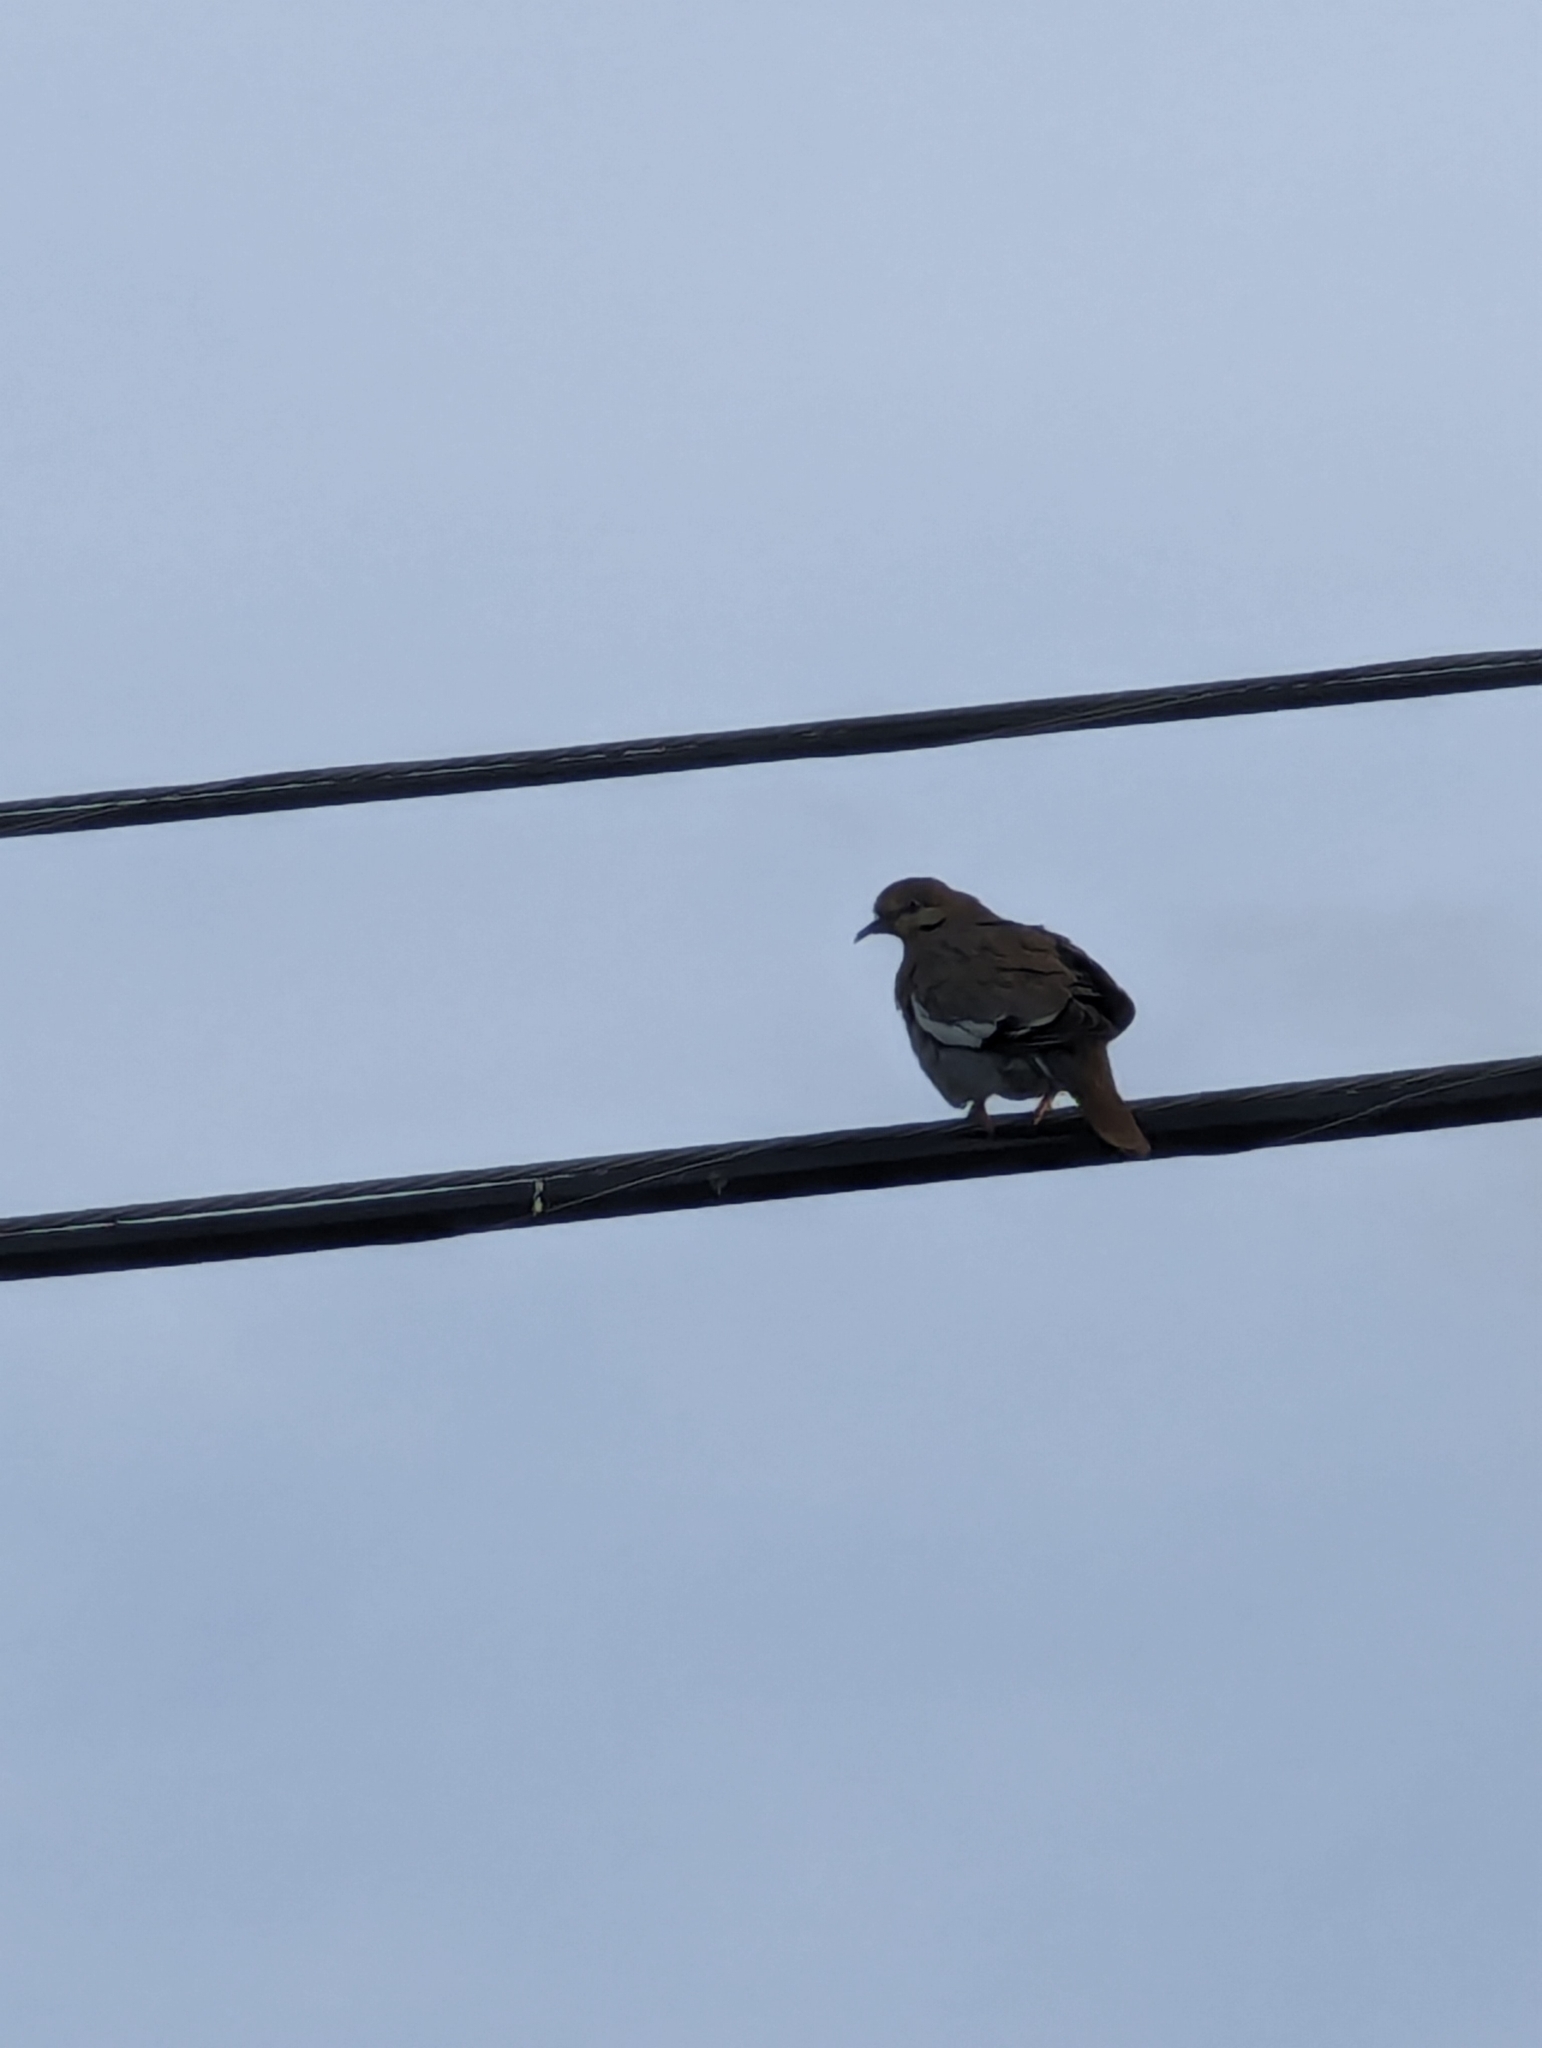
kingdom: Animalia
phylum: Chordata
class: Aves
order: Columbiformes
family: Columbidae
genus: Zenaida
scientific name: Zenaida asiatica
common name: White-winged dove
